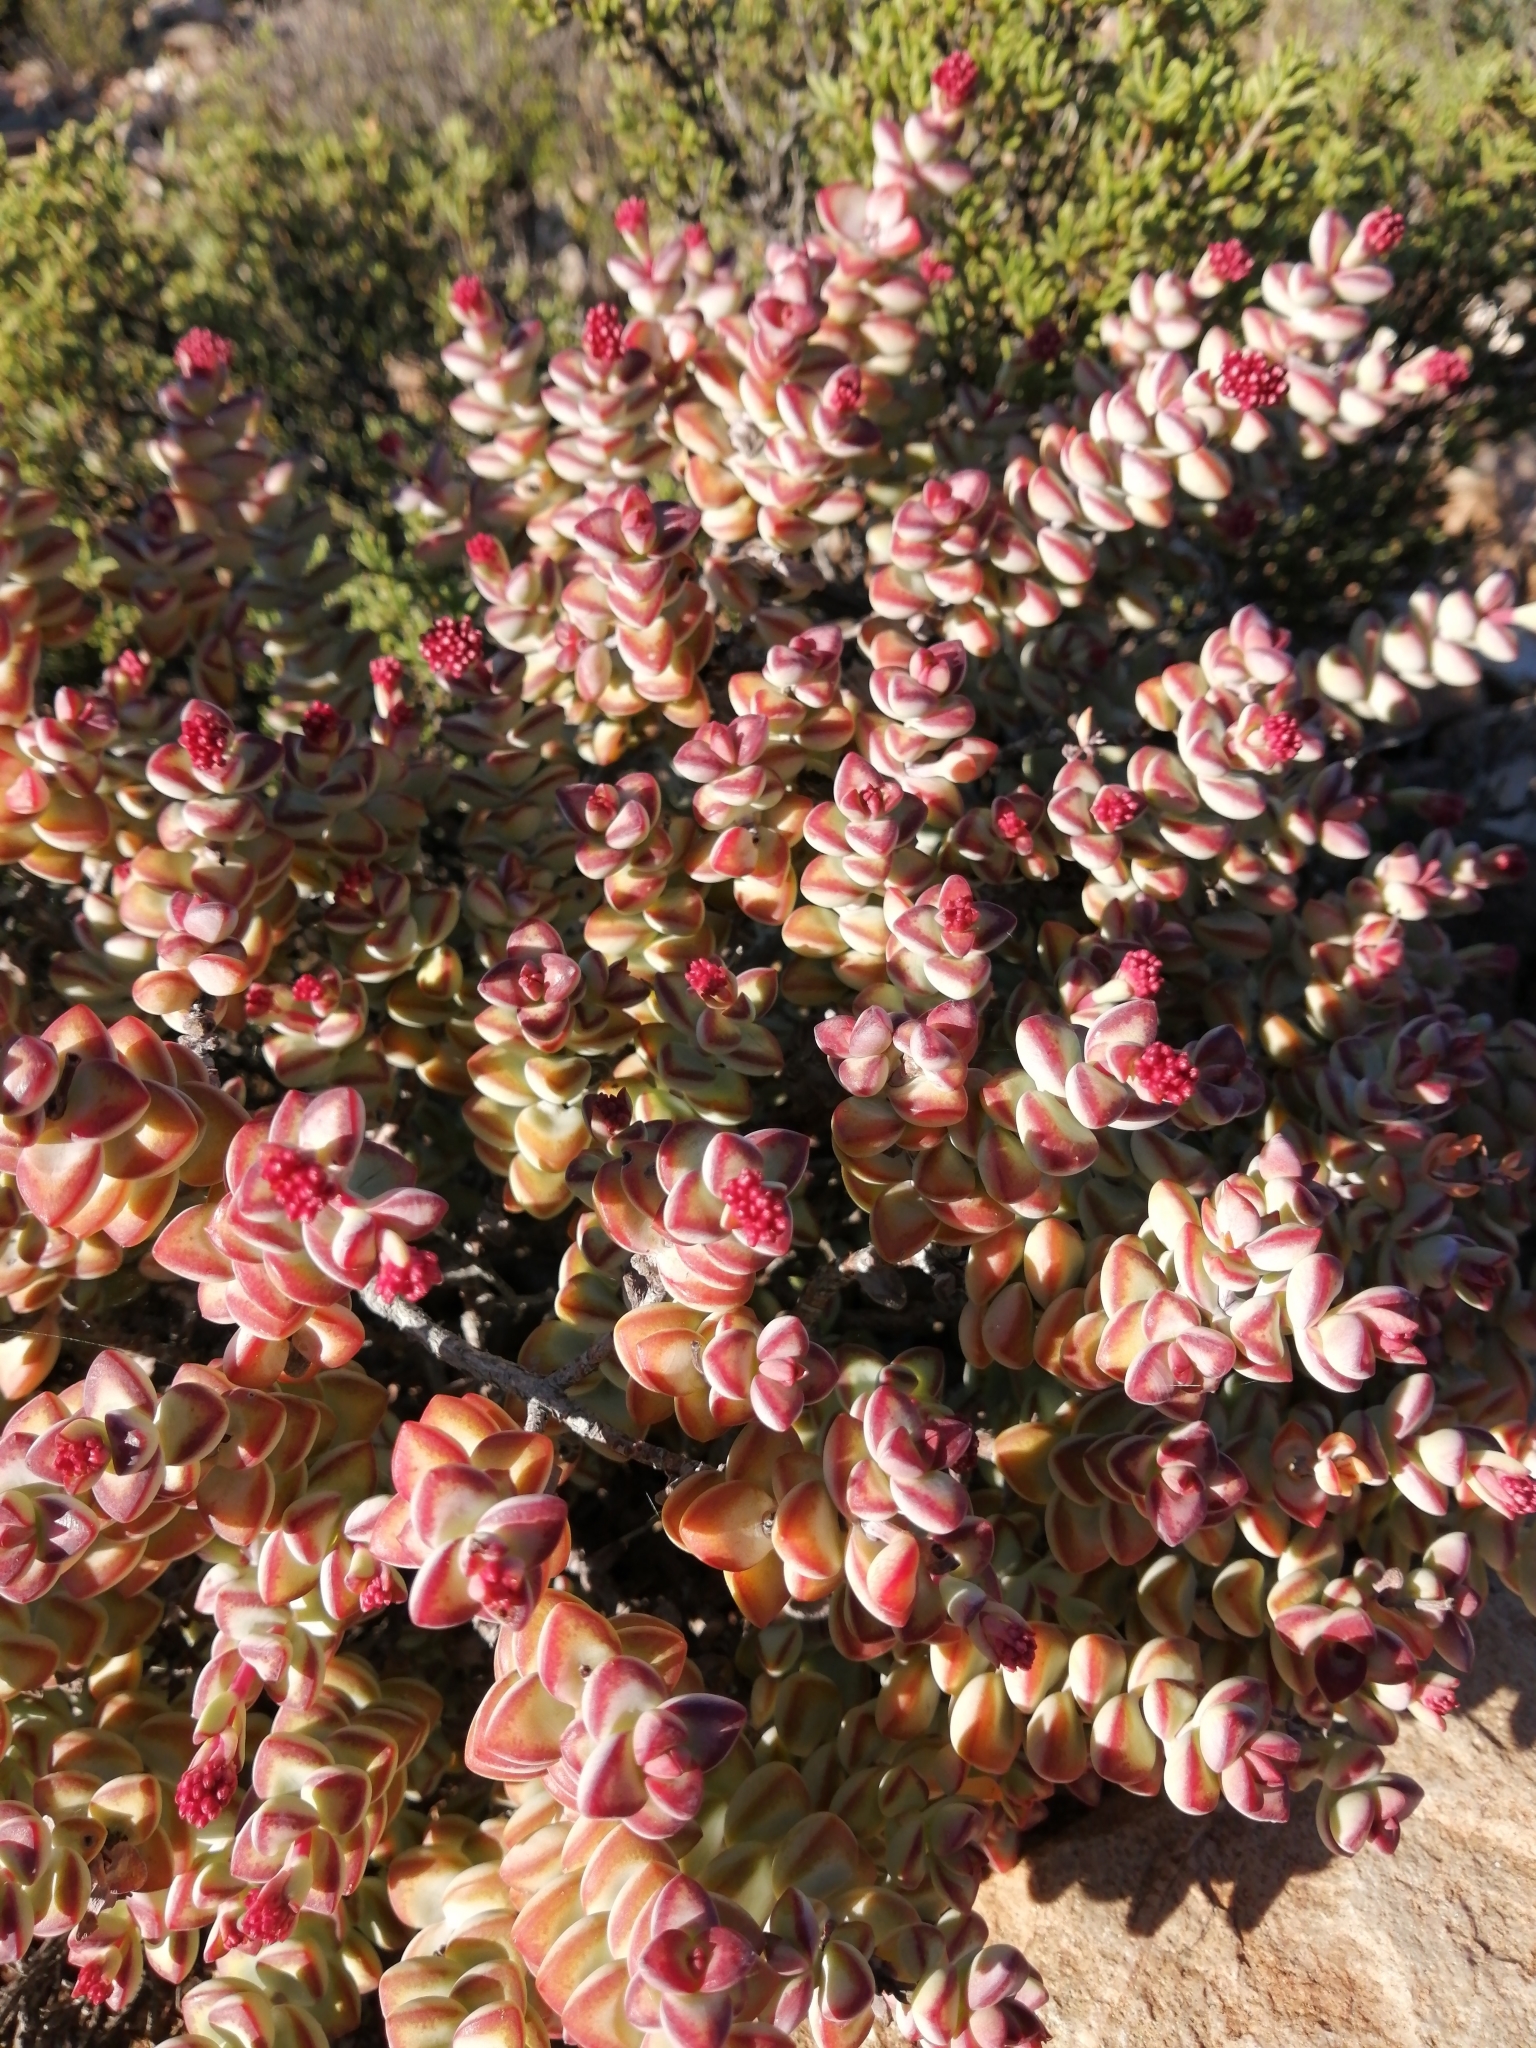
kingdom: Plantae
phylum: Tracheophyta
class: Magnoliopsida
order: Saxifragales
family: Crassulaceae
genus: Crassula
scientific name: Crassula rupestris
